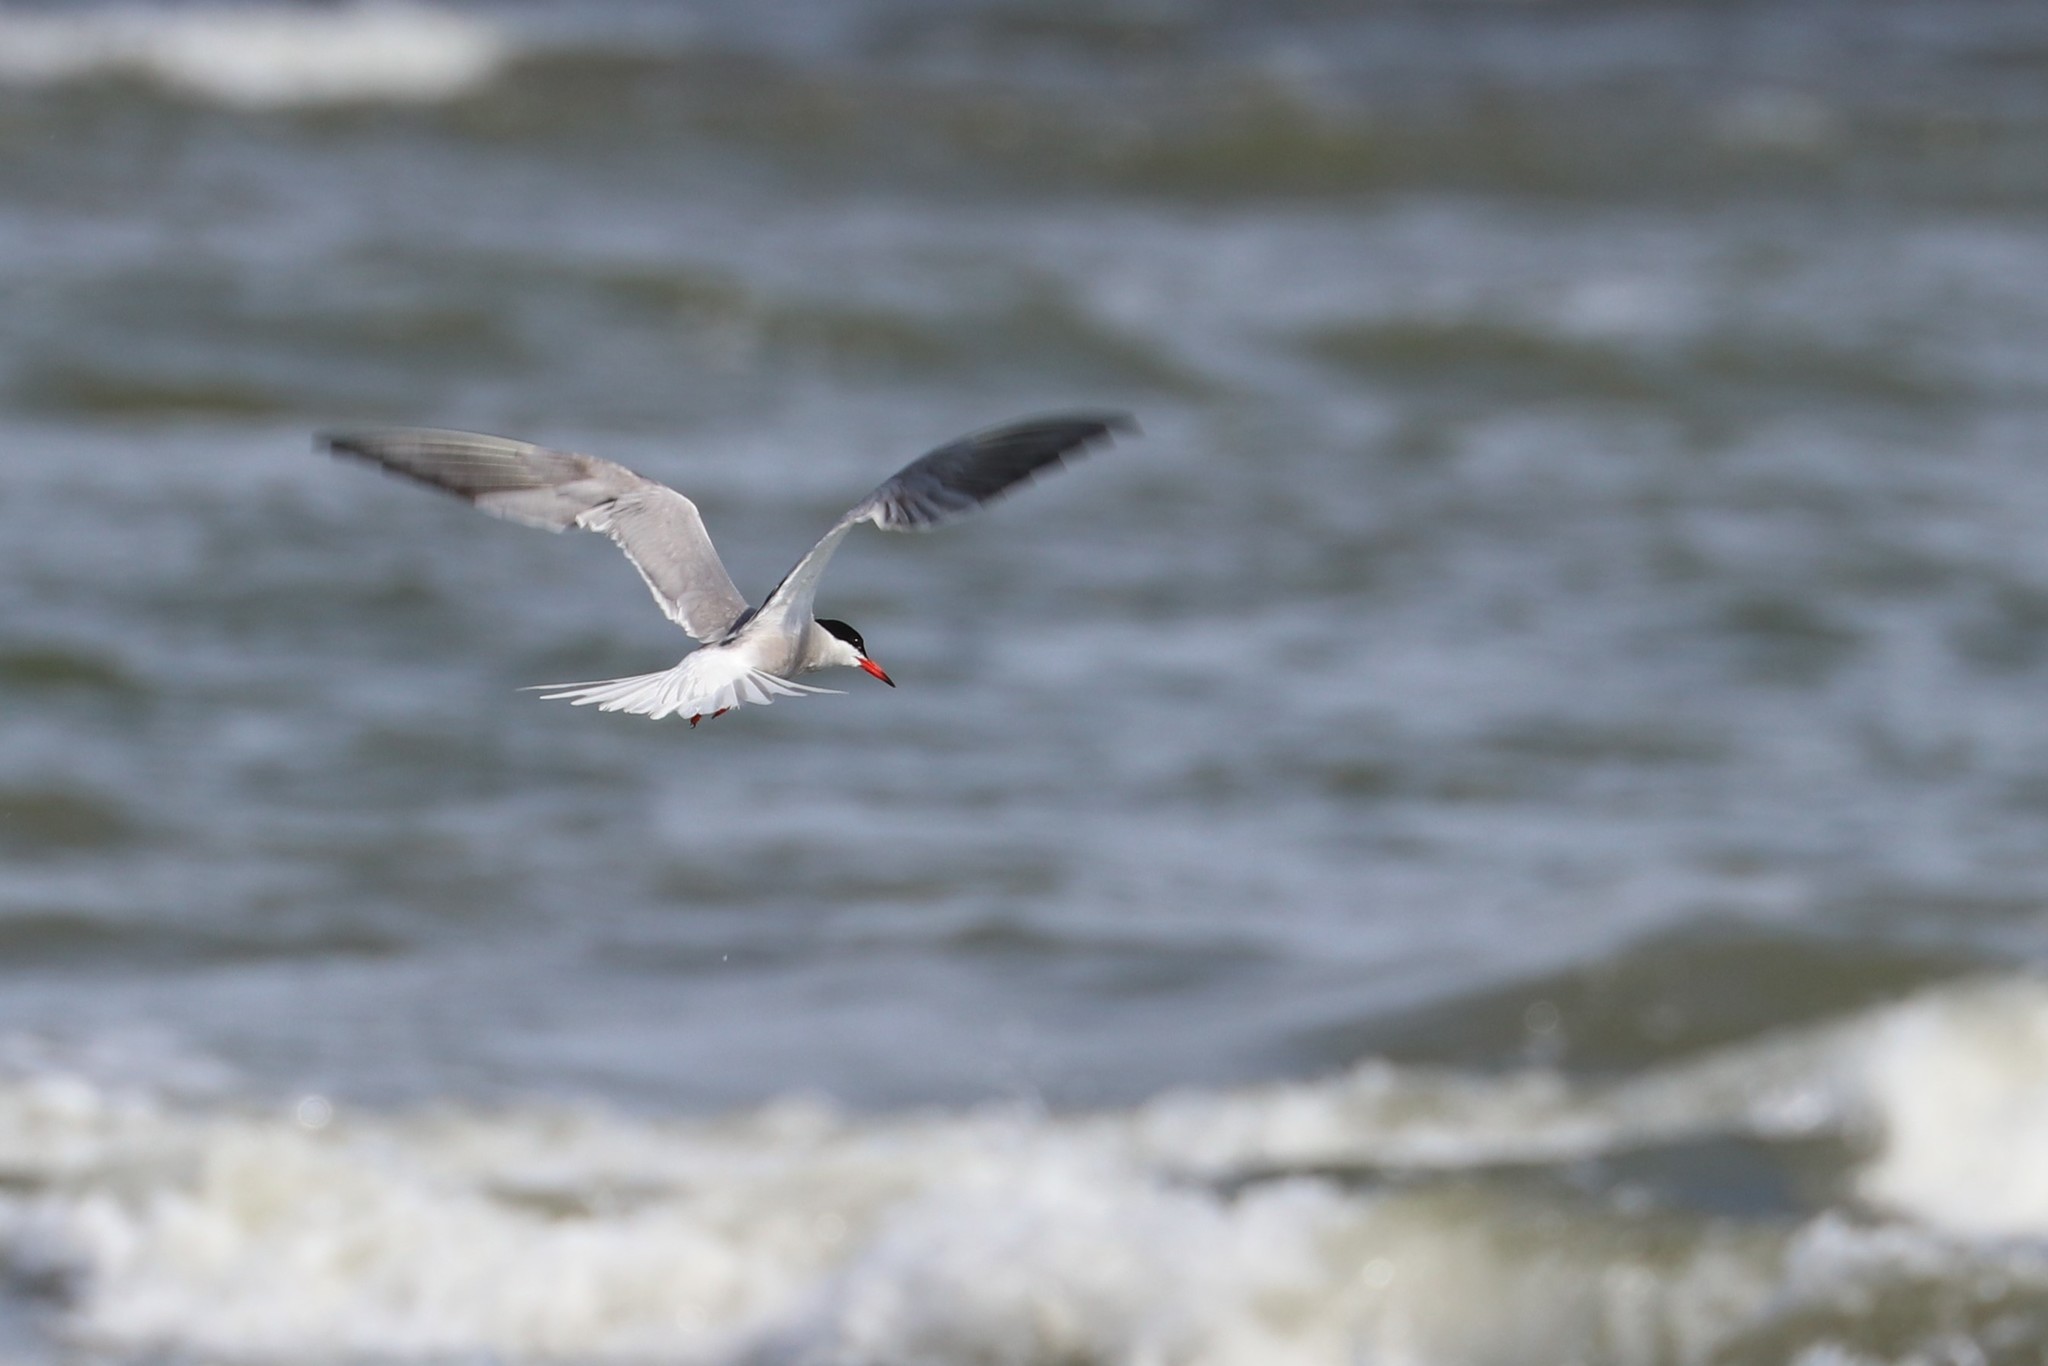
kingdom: Animalia
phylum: Chordata
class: Aves
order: Charadriiformes
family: Laridae
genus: Sterna
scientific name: Sterna hirundo
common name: Common tern
